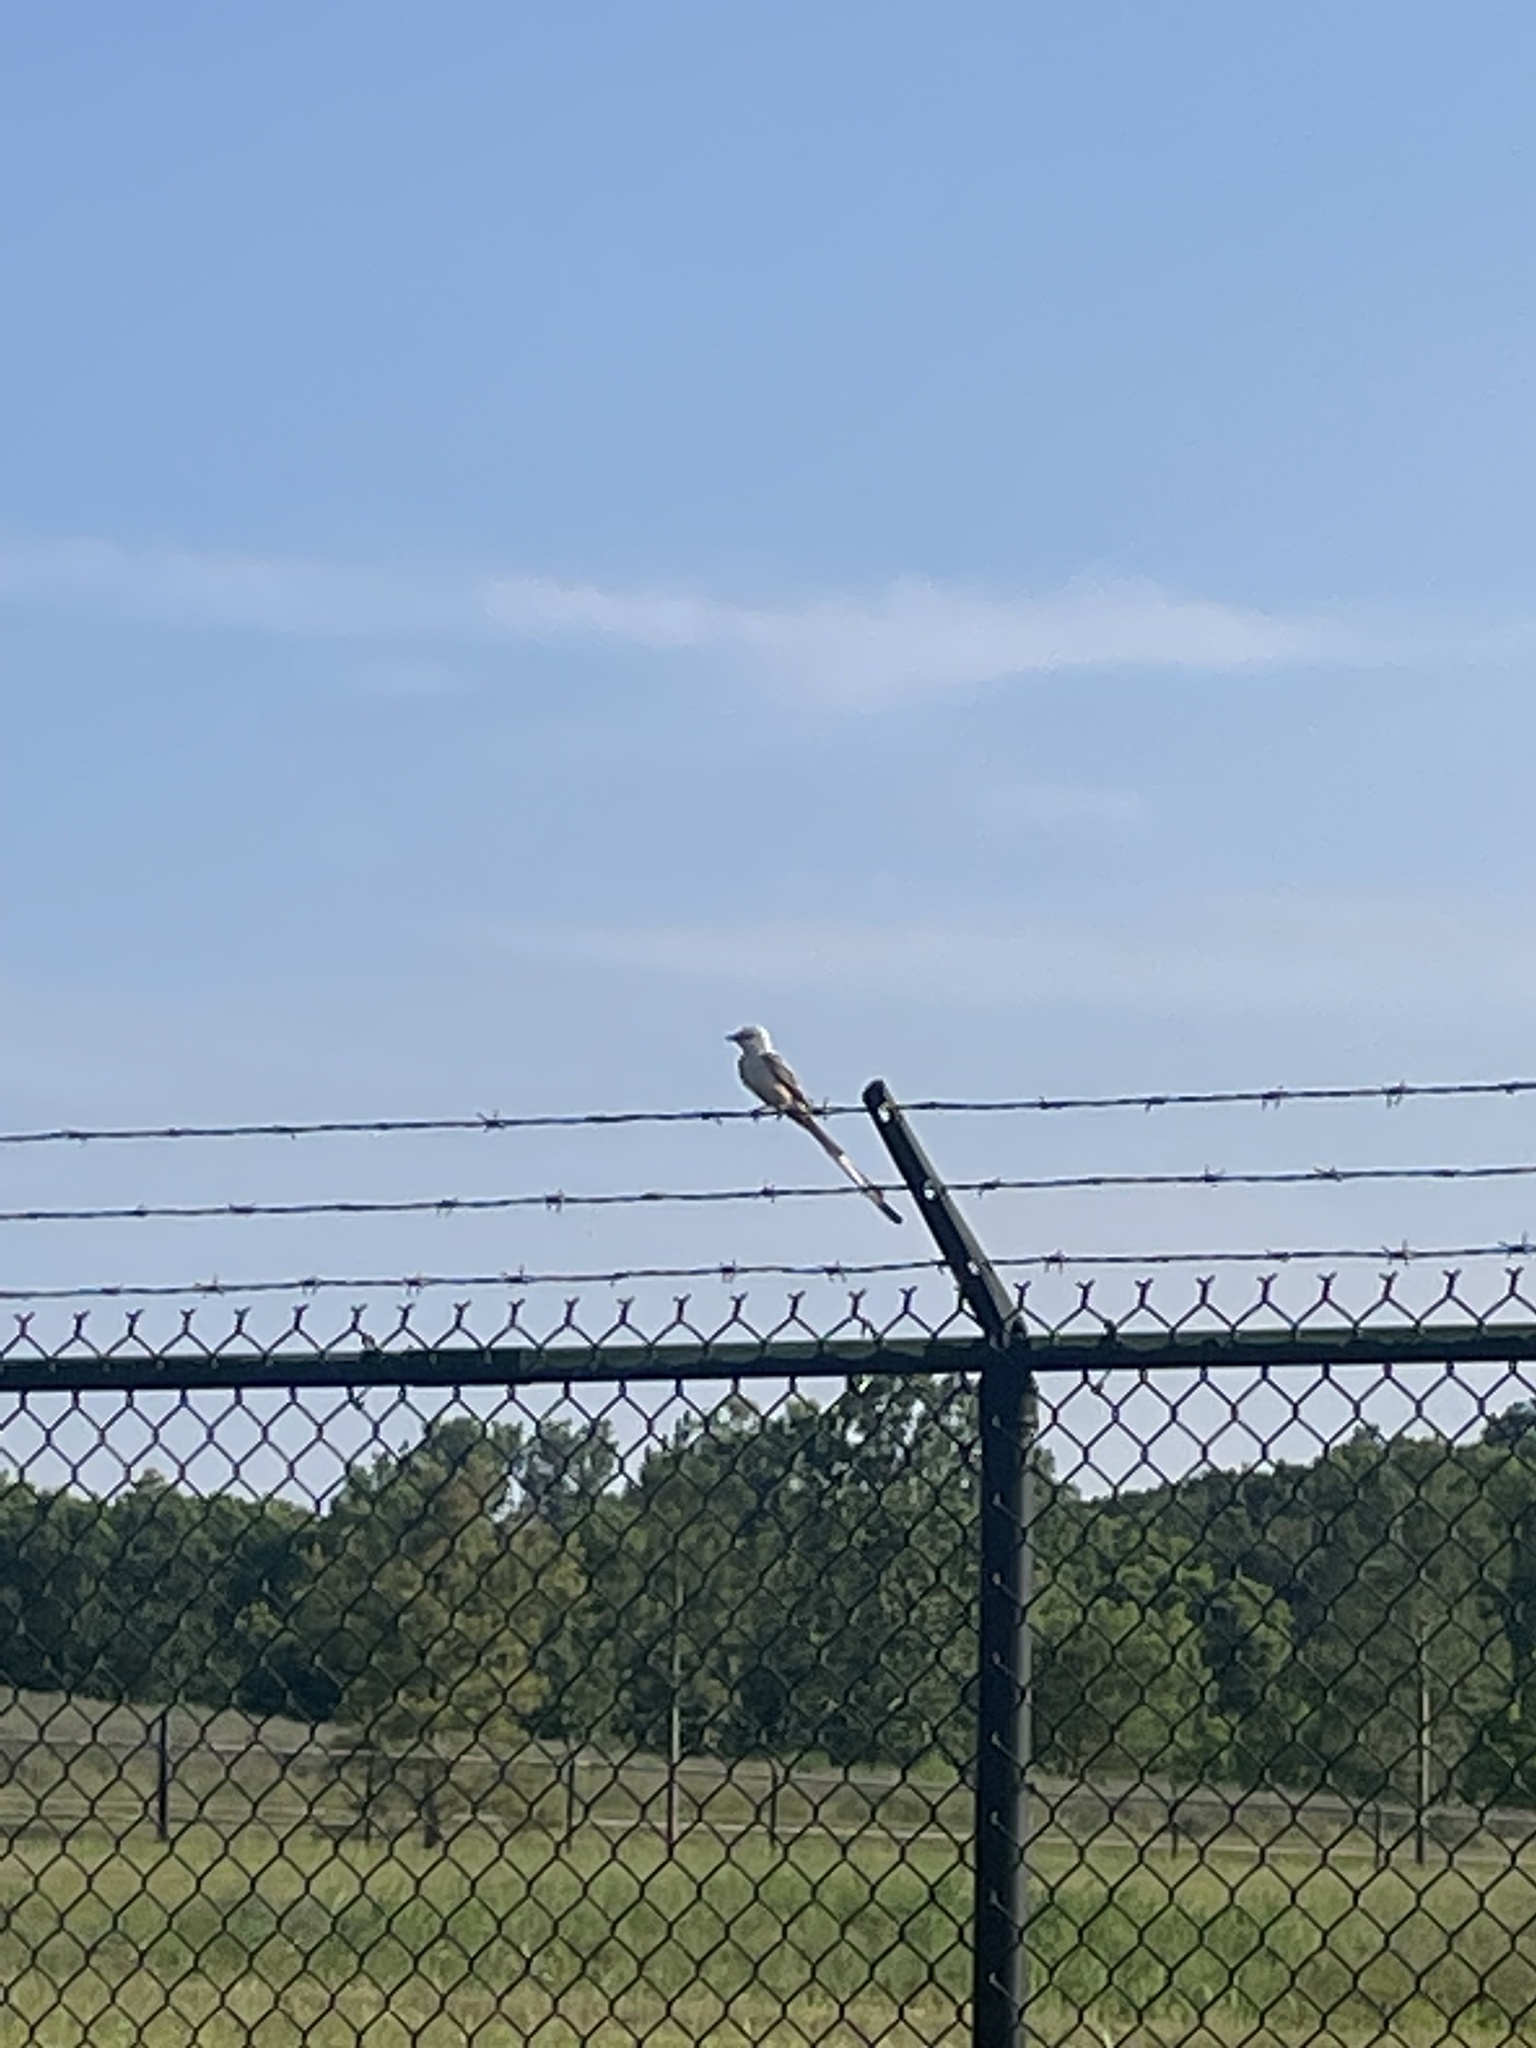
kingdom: Animalia
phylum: Chordata
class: Aves
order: Passeriformes
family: Tyrannidae
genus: Tyrannus
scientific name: Tyrannus forficatus
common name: Scissor-tailed flycatcher
